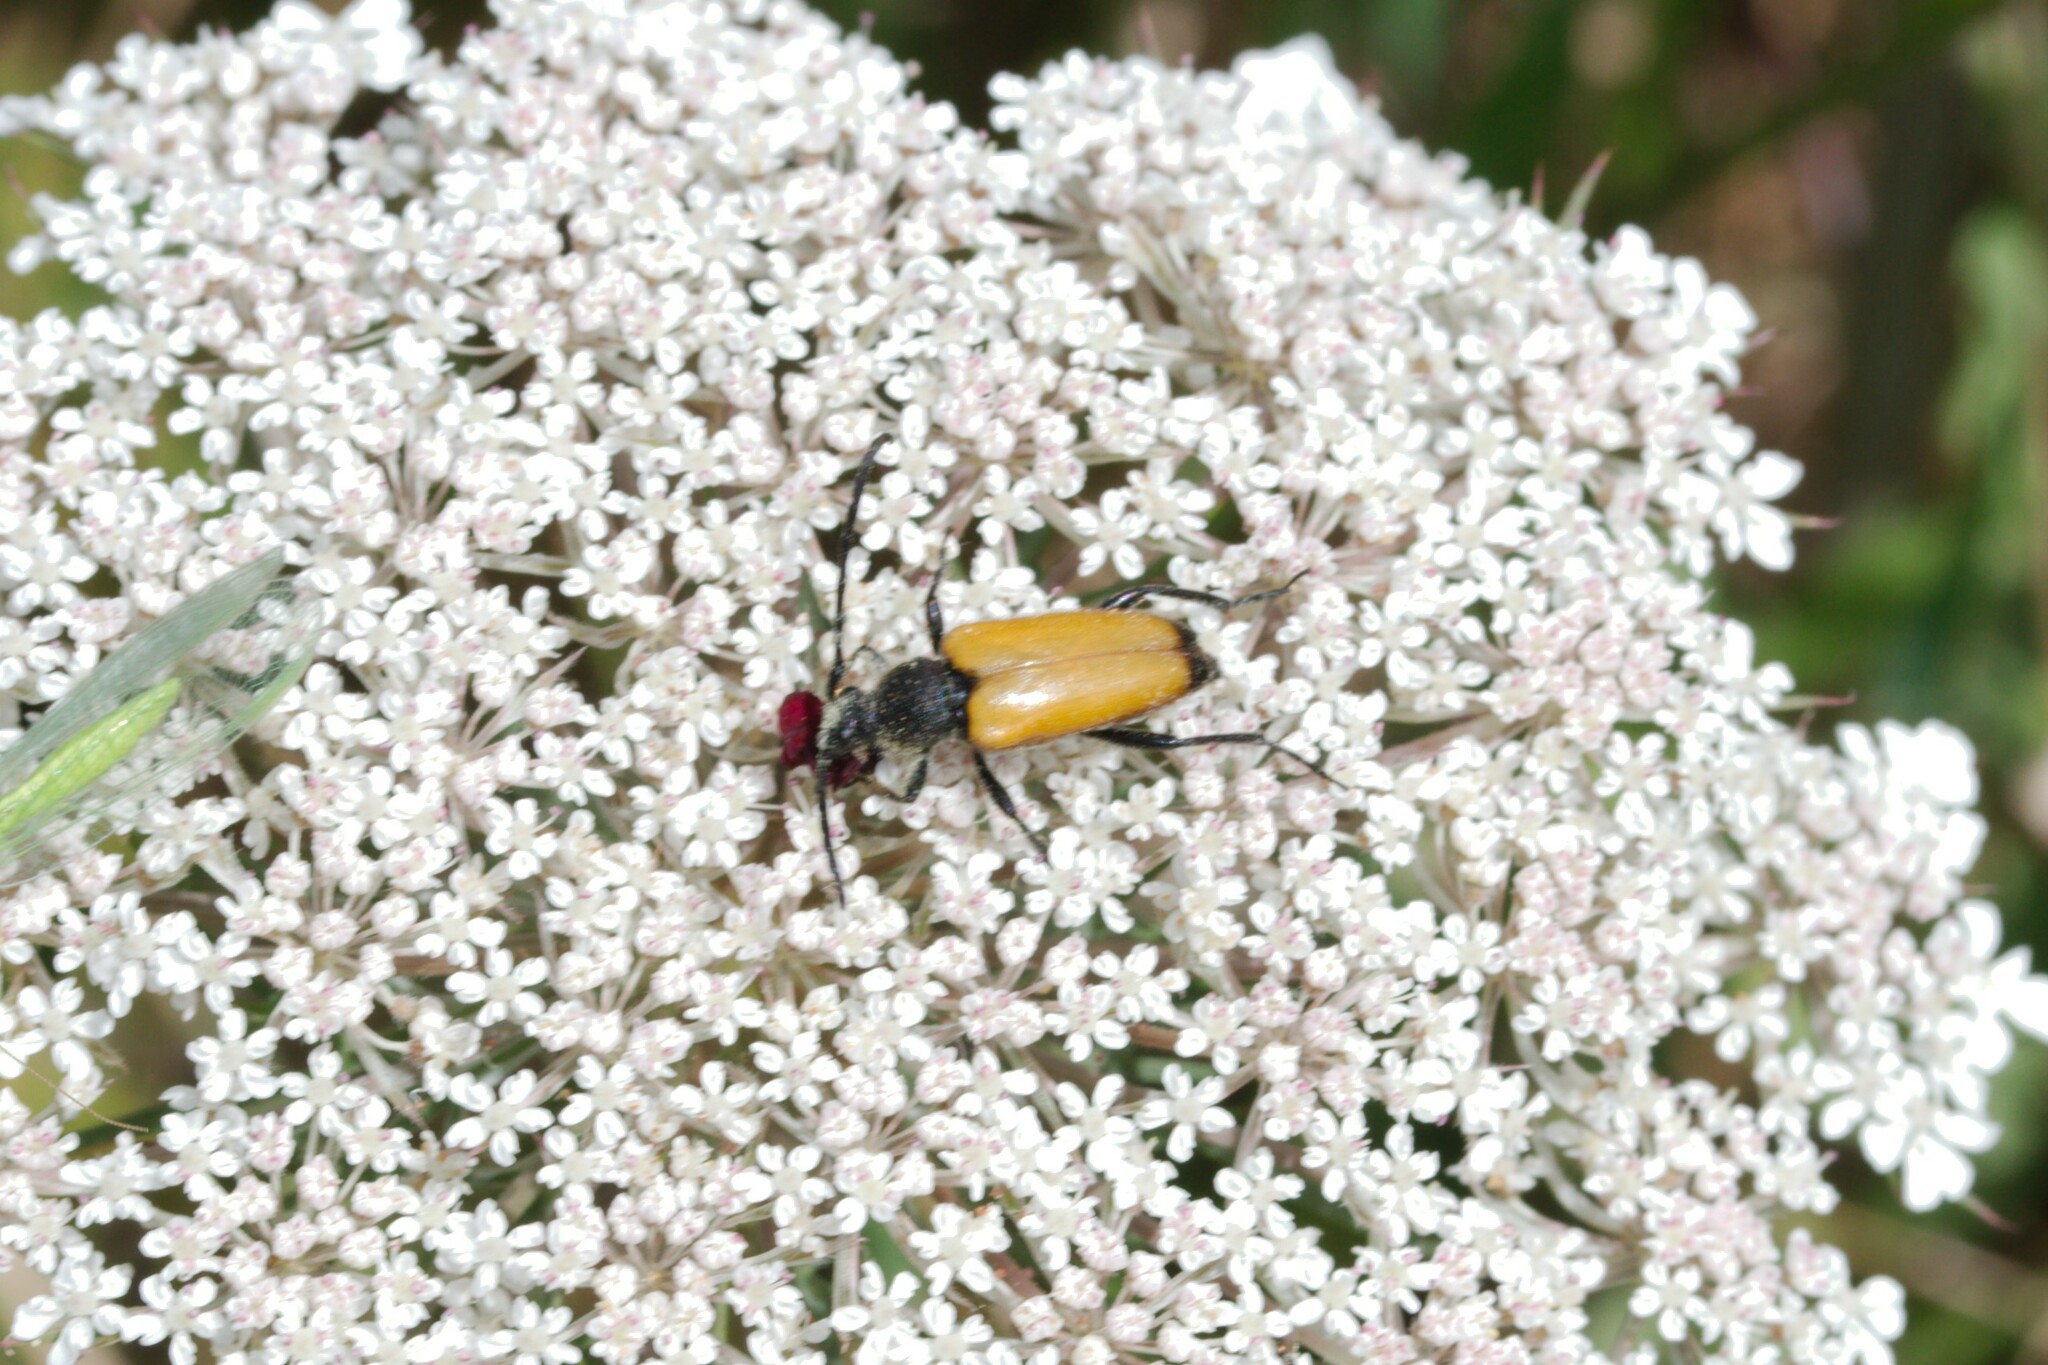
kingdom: Animalia
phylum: Arthropoda
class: Insecta
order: Coleoptera
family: Cerambycidae
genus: Paracorymbia
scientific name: Paracorymbia fulva
